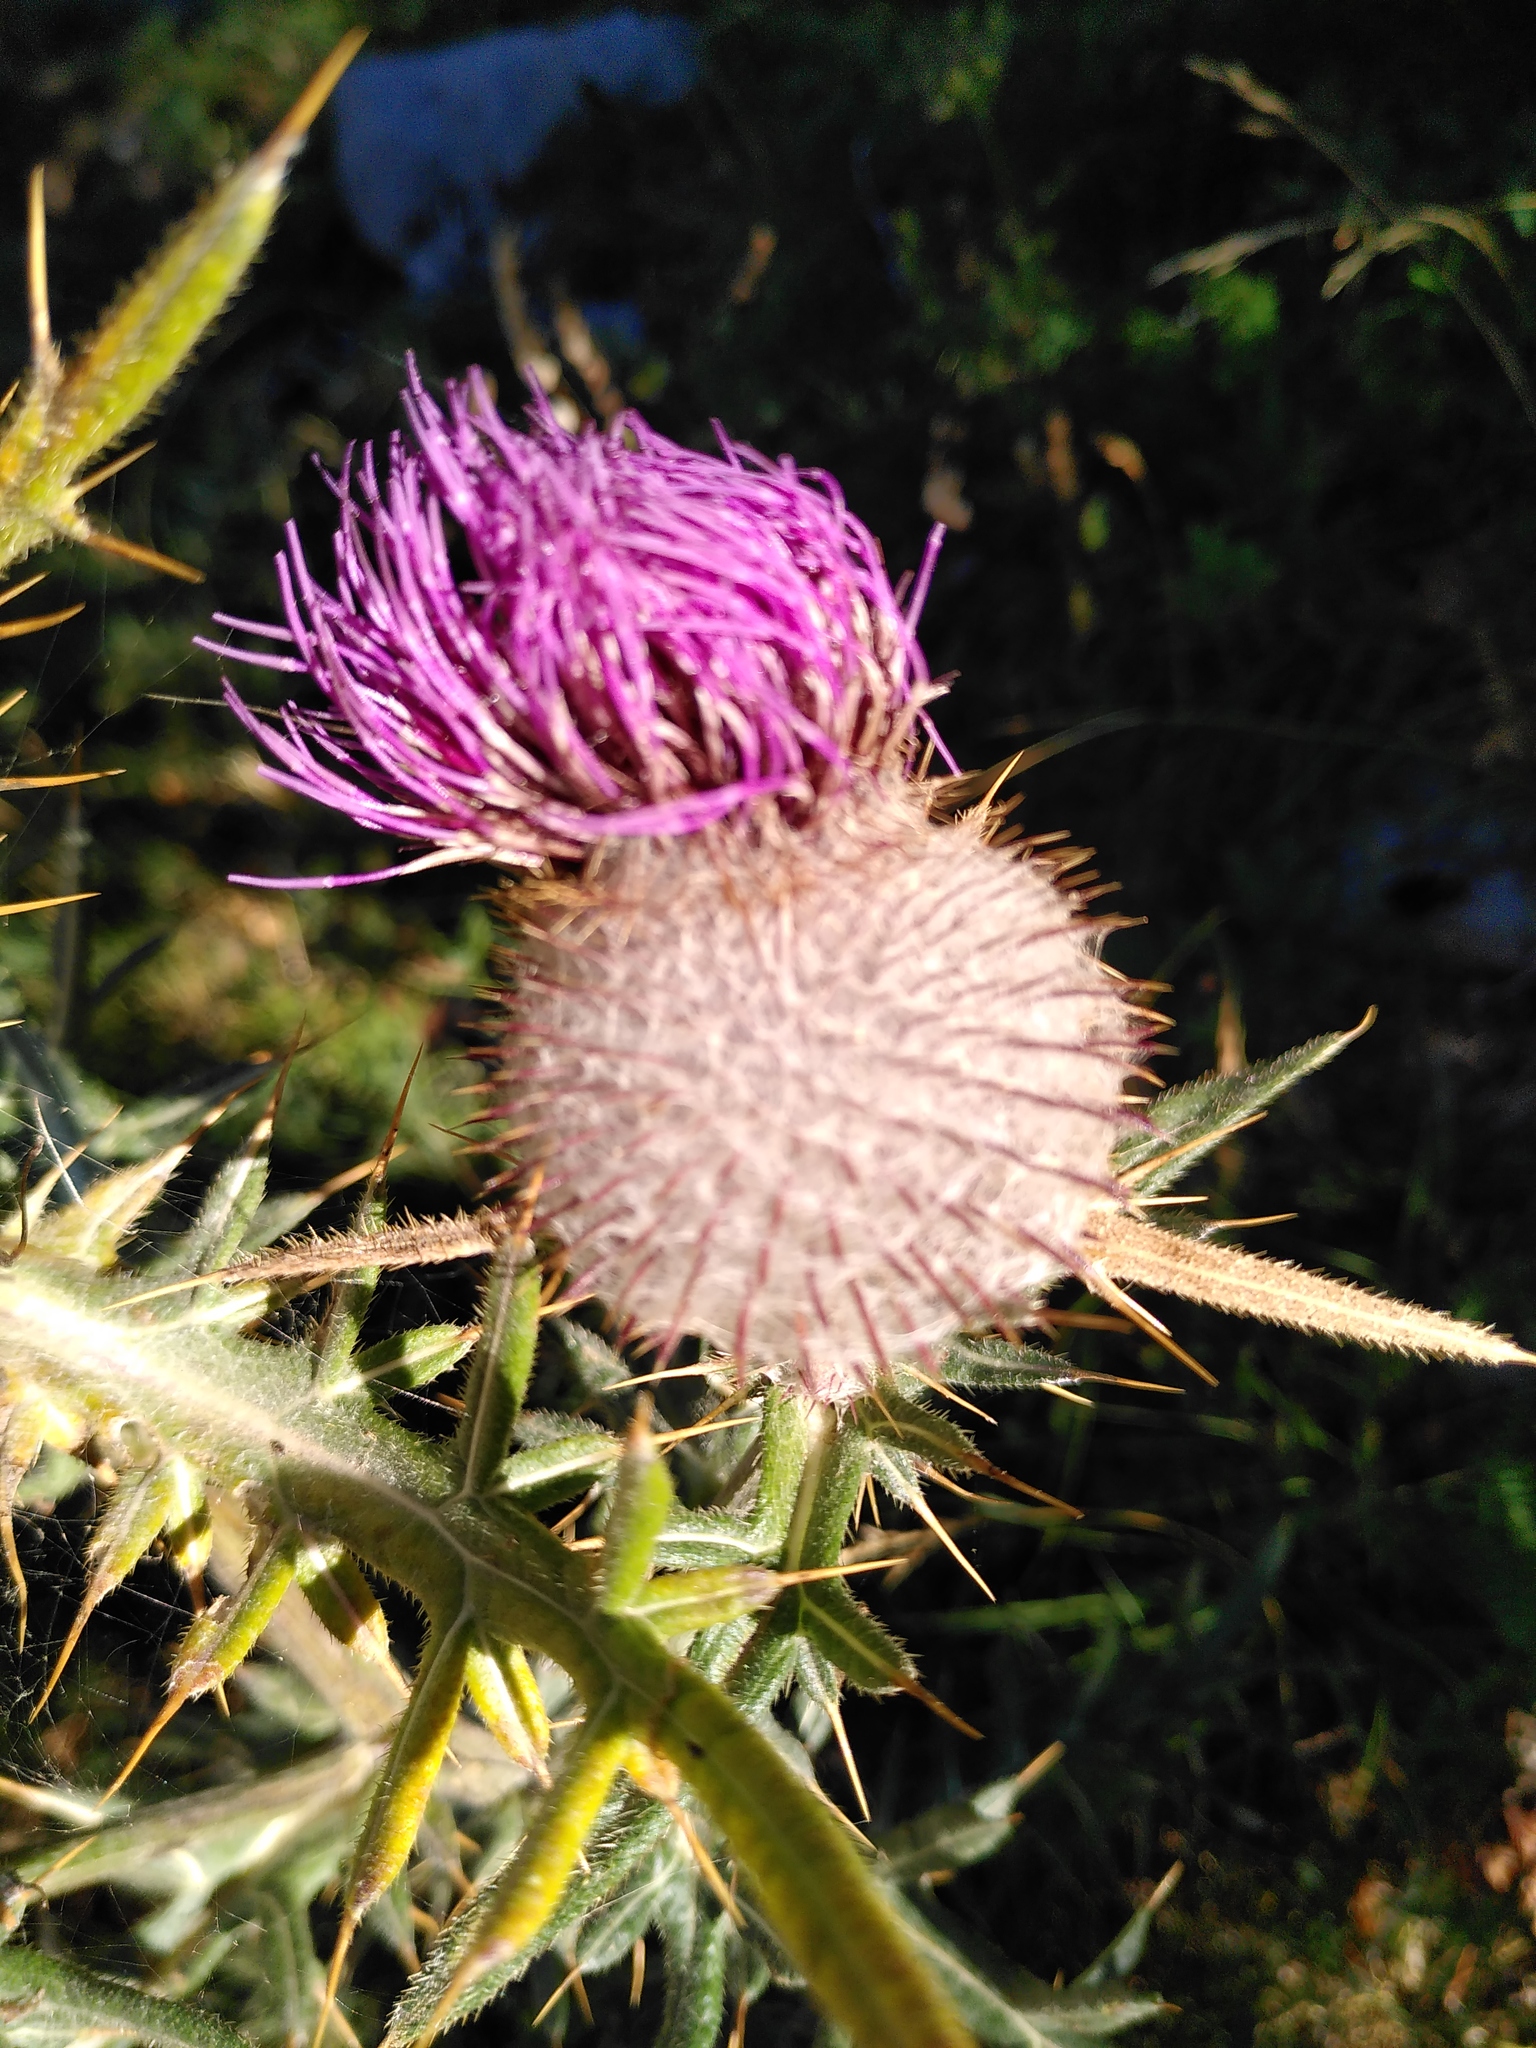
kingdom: Plantae
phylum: Tracheophyta
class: Magnoliopsida
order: Asterales
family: Asteraceae
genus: Lophiolepis
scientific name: Lophiolepis eriophora
